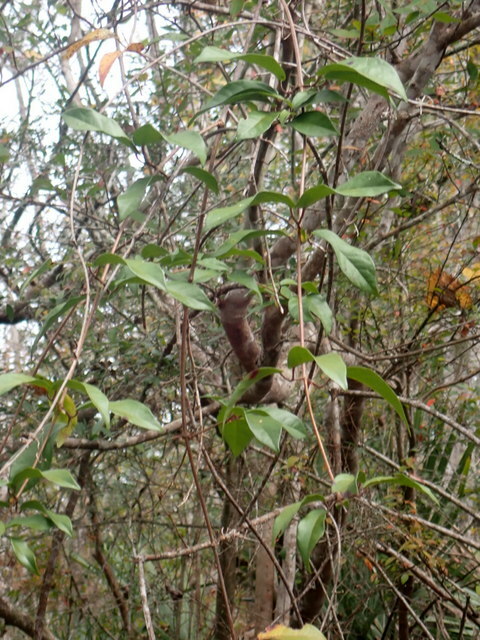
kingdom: Plantae
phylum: Tracheophyta
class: Magnoliopsida
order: Lamiales
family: Bignoniaceae
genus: Bignonia
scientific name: Bignonia capreolata
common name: Crossvine
